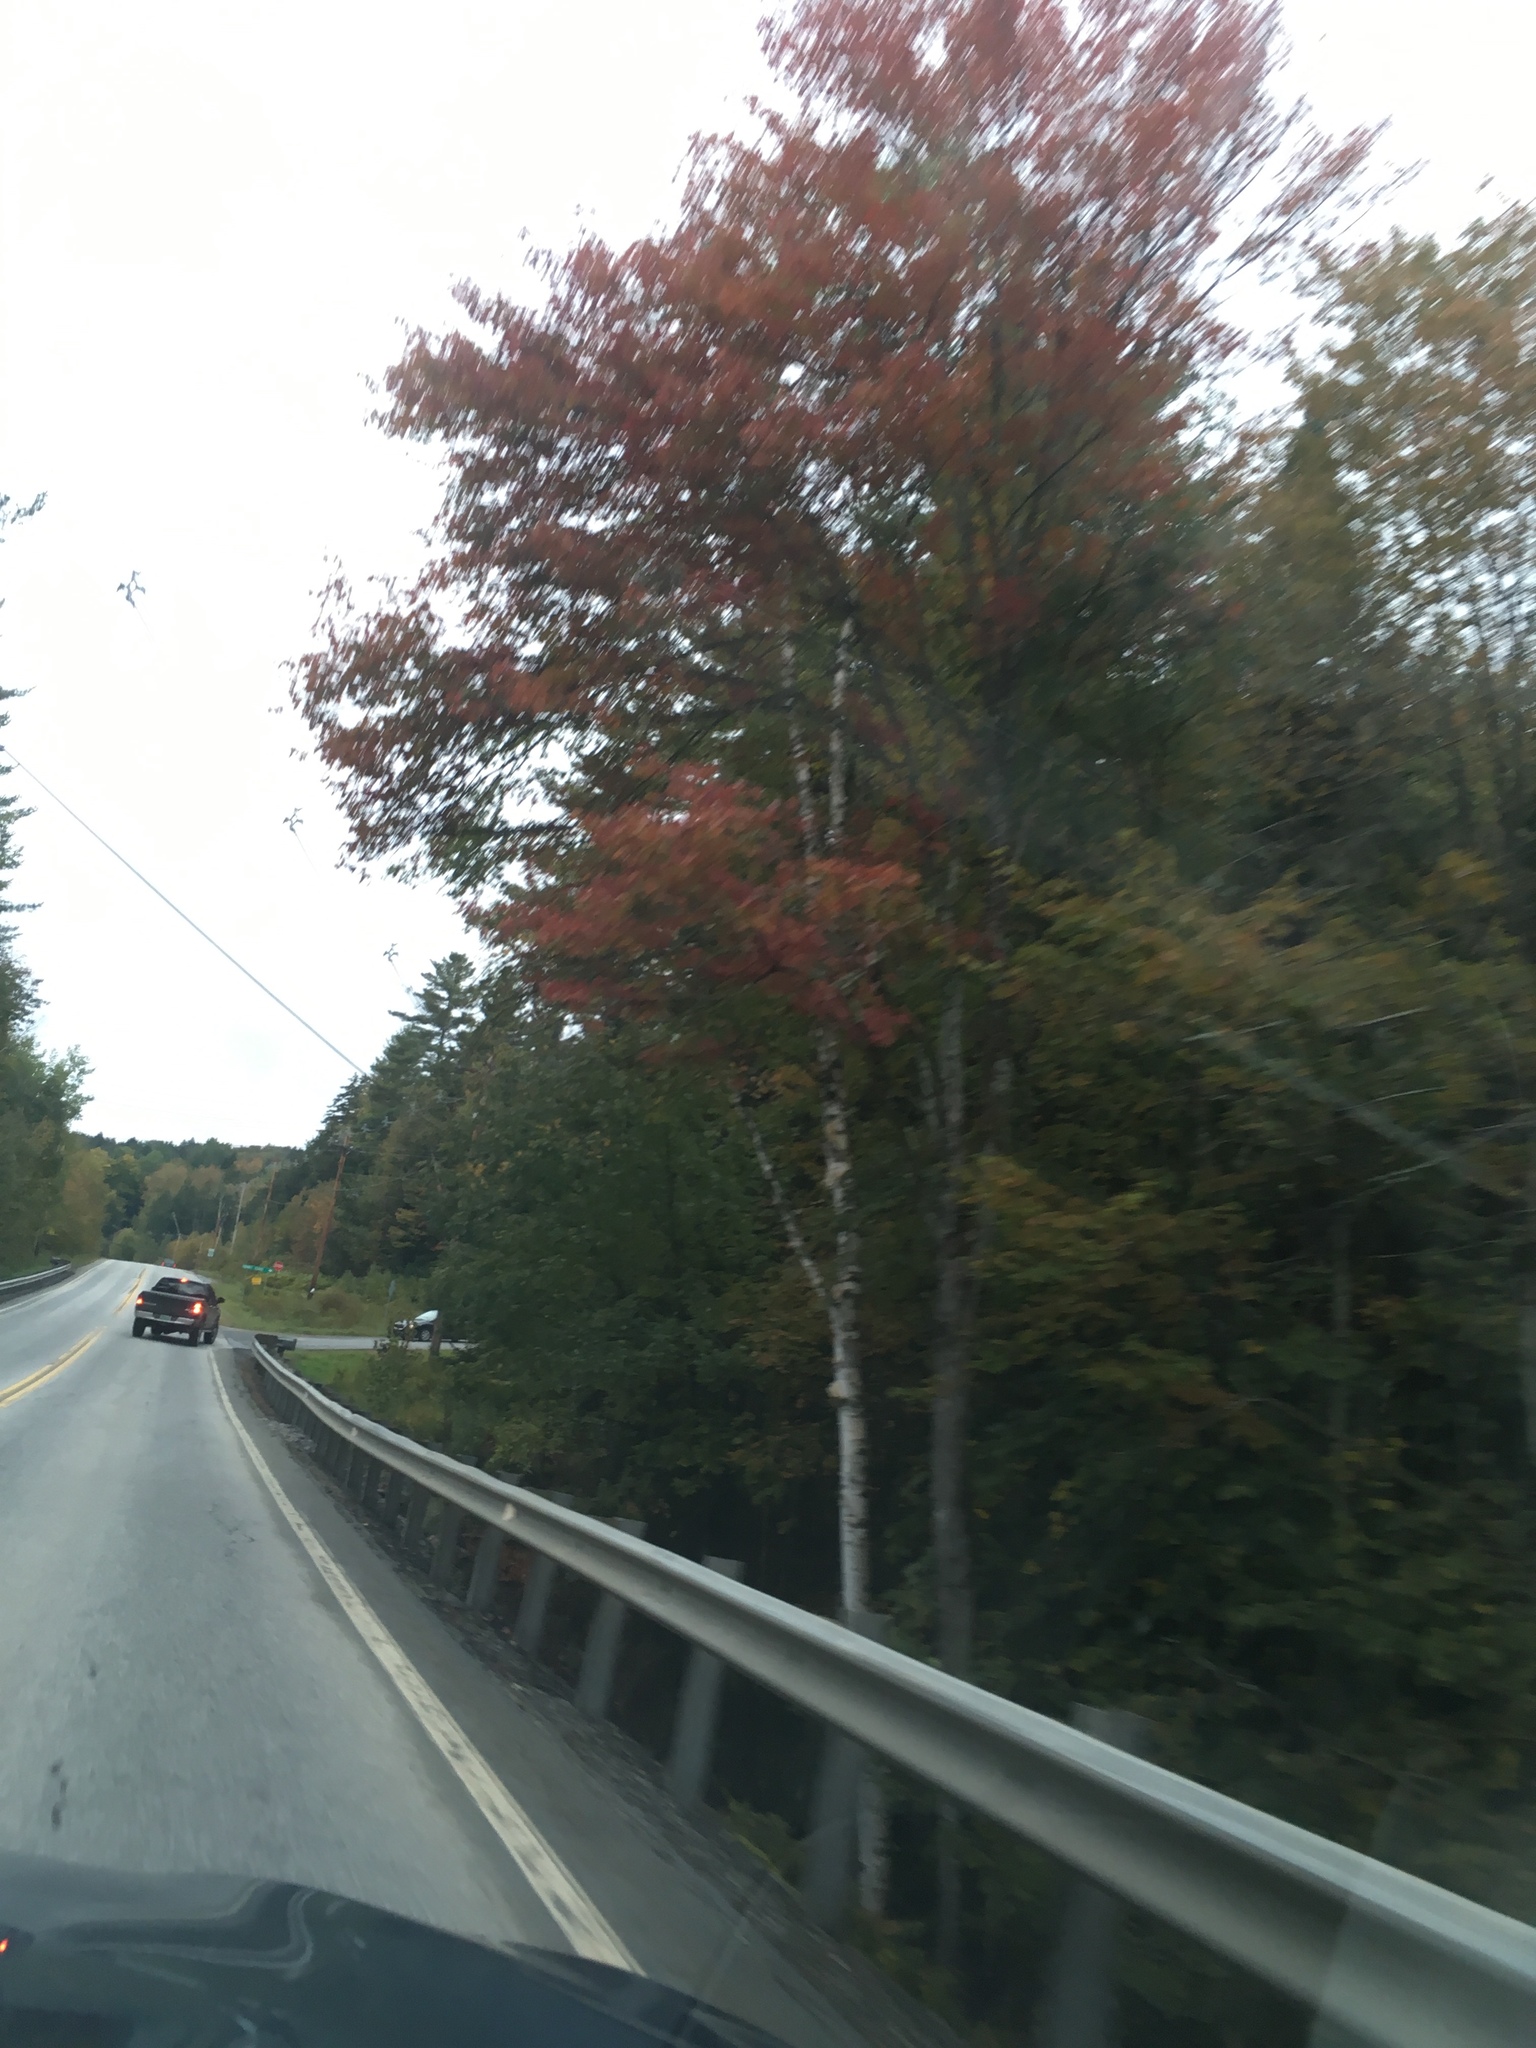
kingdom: Plantae
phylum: Tracheophyta
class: Magnoliopsida
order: Sapindales
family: Sapindaceae
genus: Acer
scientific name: Acer rubrum
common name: Red maple
